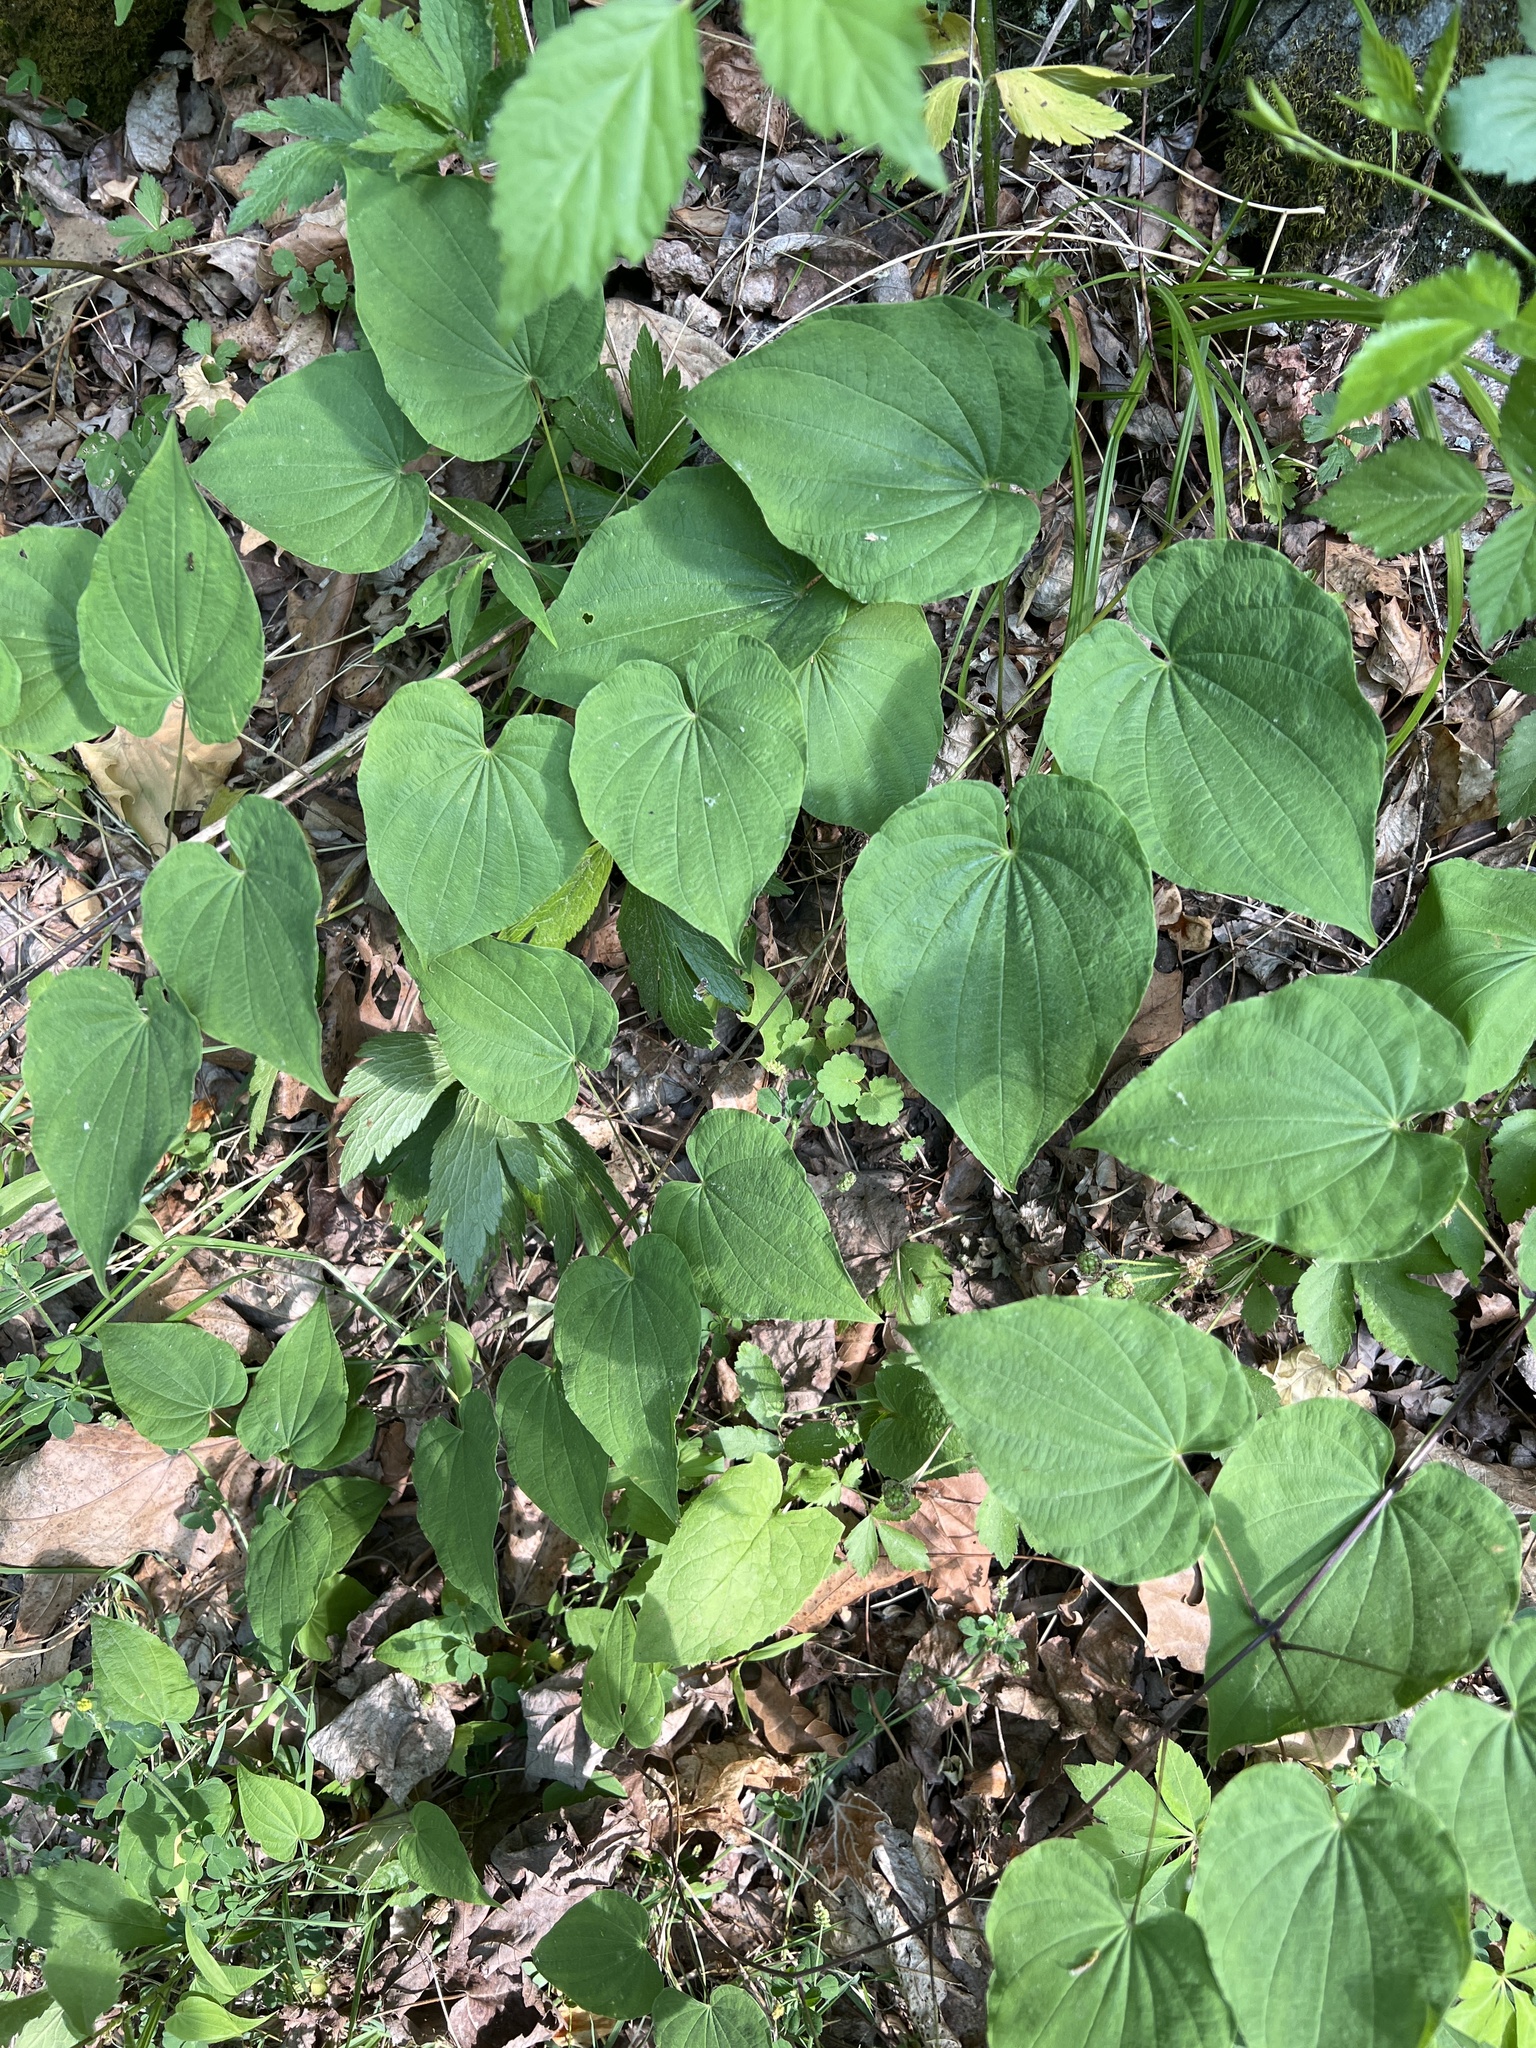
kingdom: Plantae
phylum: Tracheophyta
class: Liliopsida
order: Dioscoreales
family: Dioscoreaceae
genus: Dioscorea
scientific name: Dioscorea villosa
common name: Wild yam
